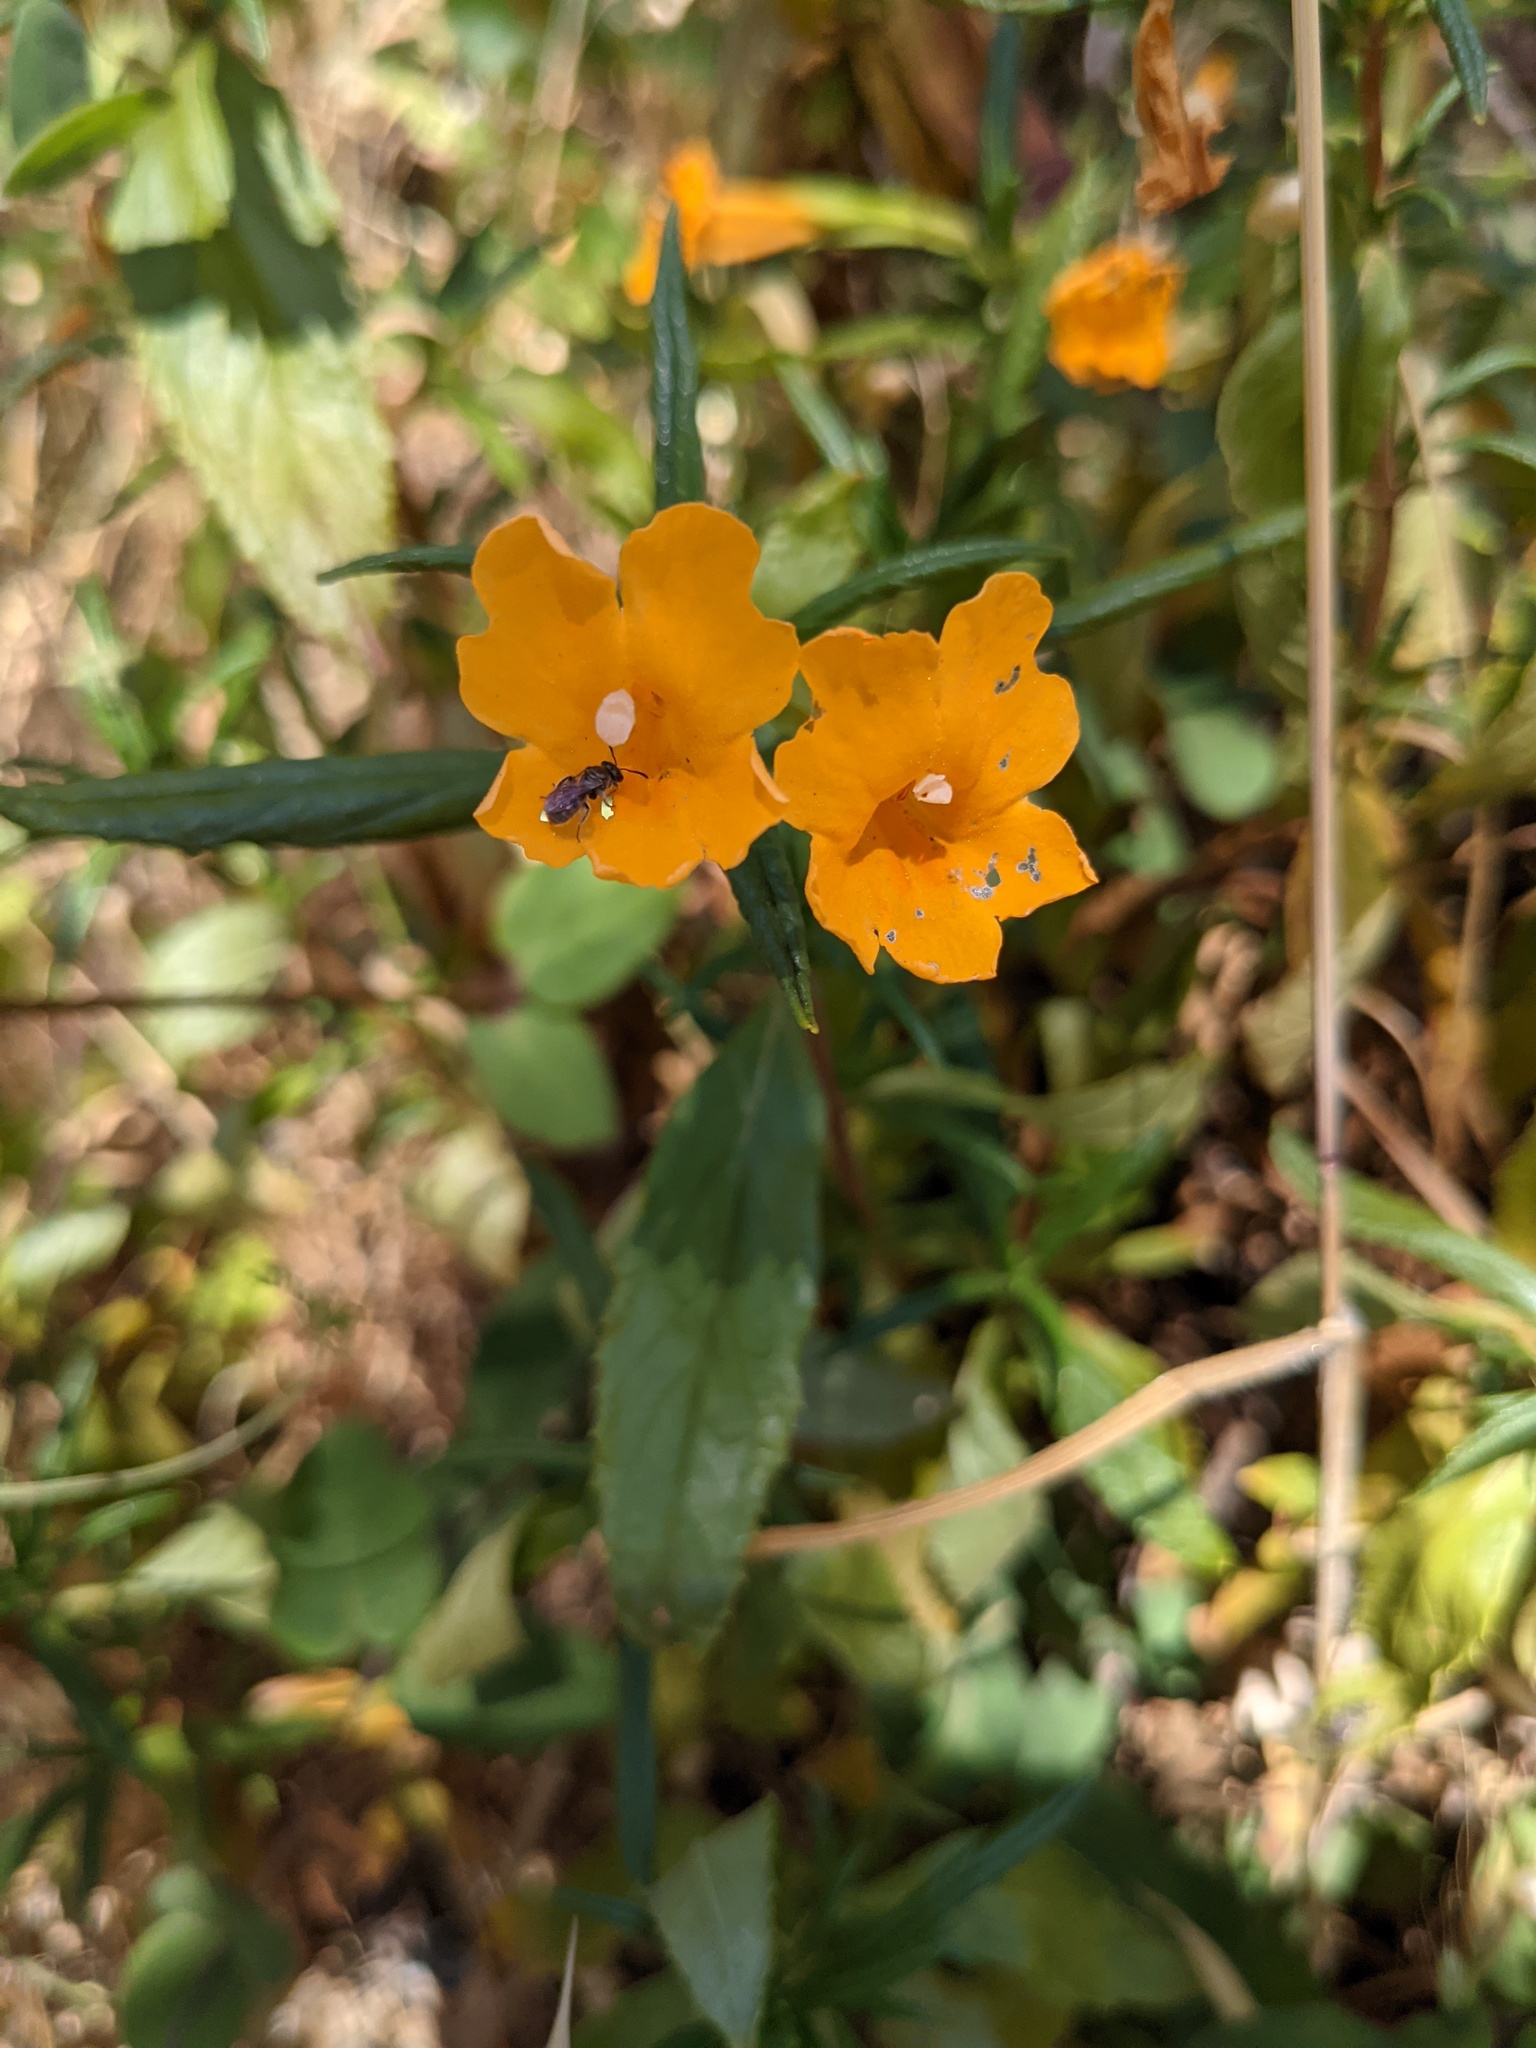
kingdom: Plantae
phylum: Tracheophyta
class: Magnoliopsida
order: Lamiales
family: Phrymaceae
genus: Diplacus
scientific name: Diplacus aurantiacus
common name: Bush monkey-flower
